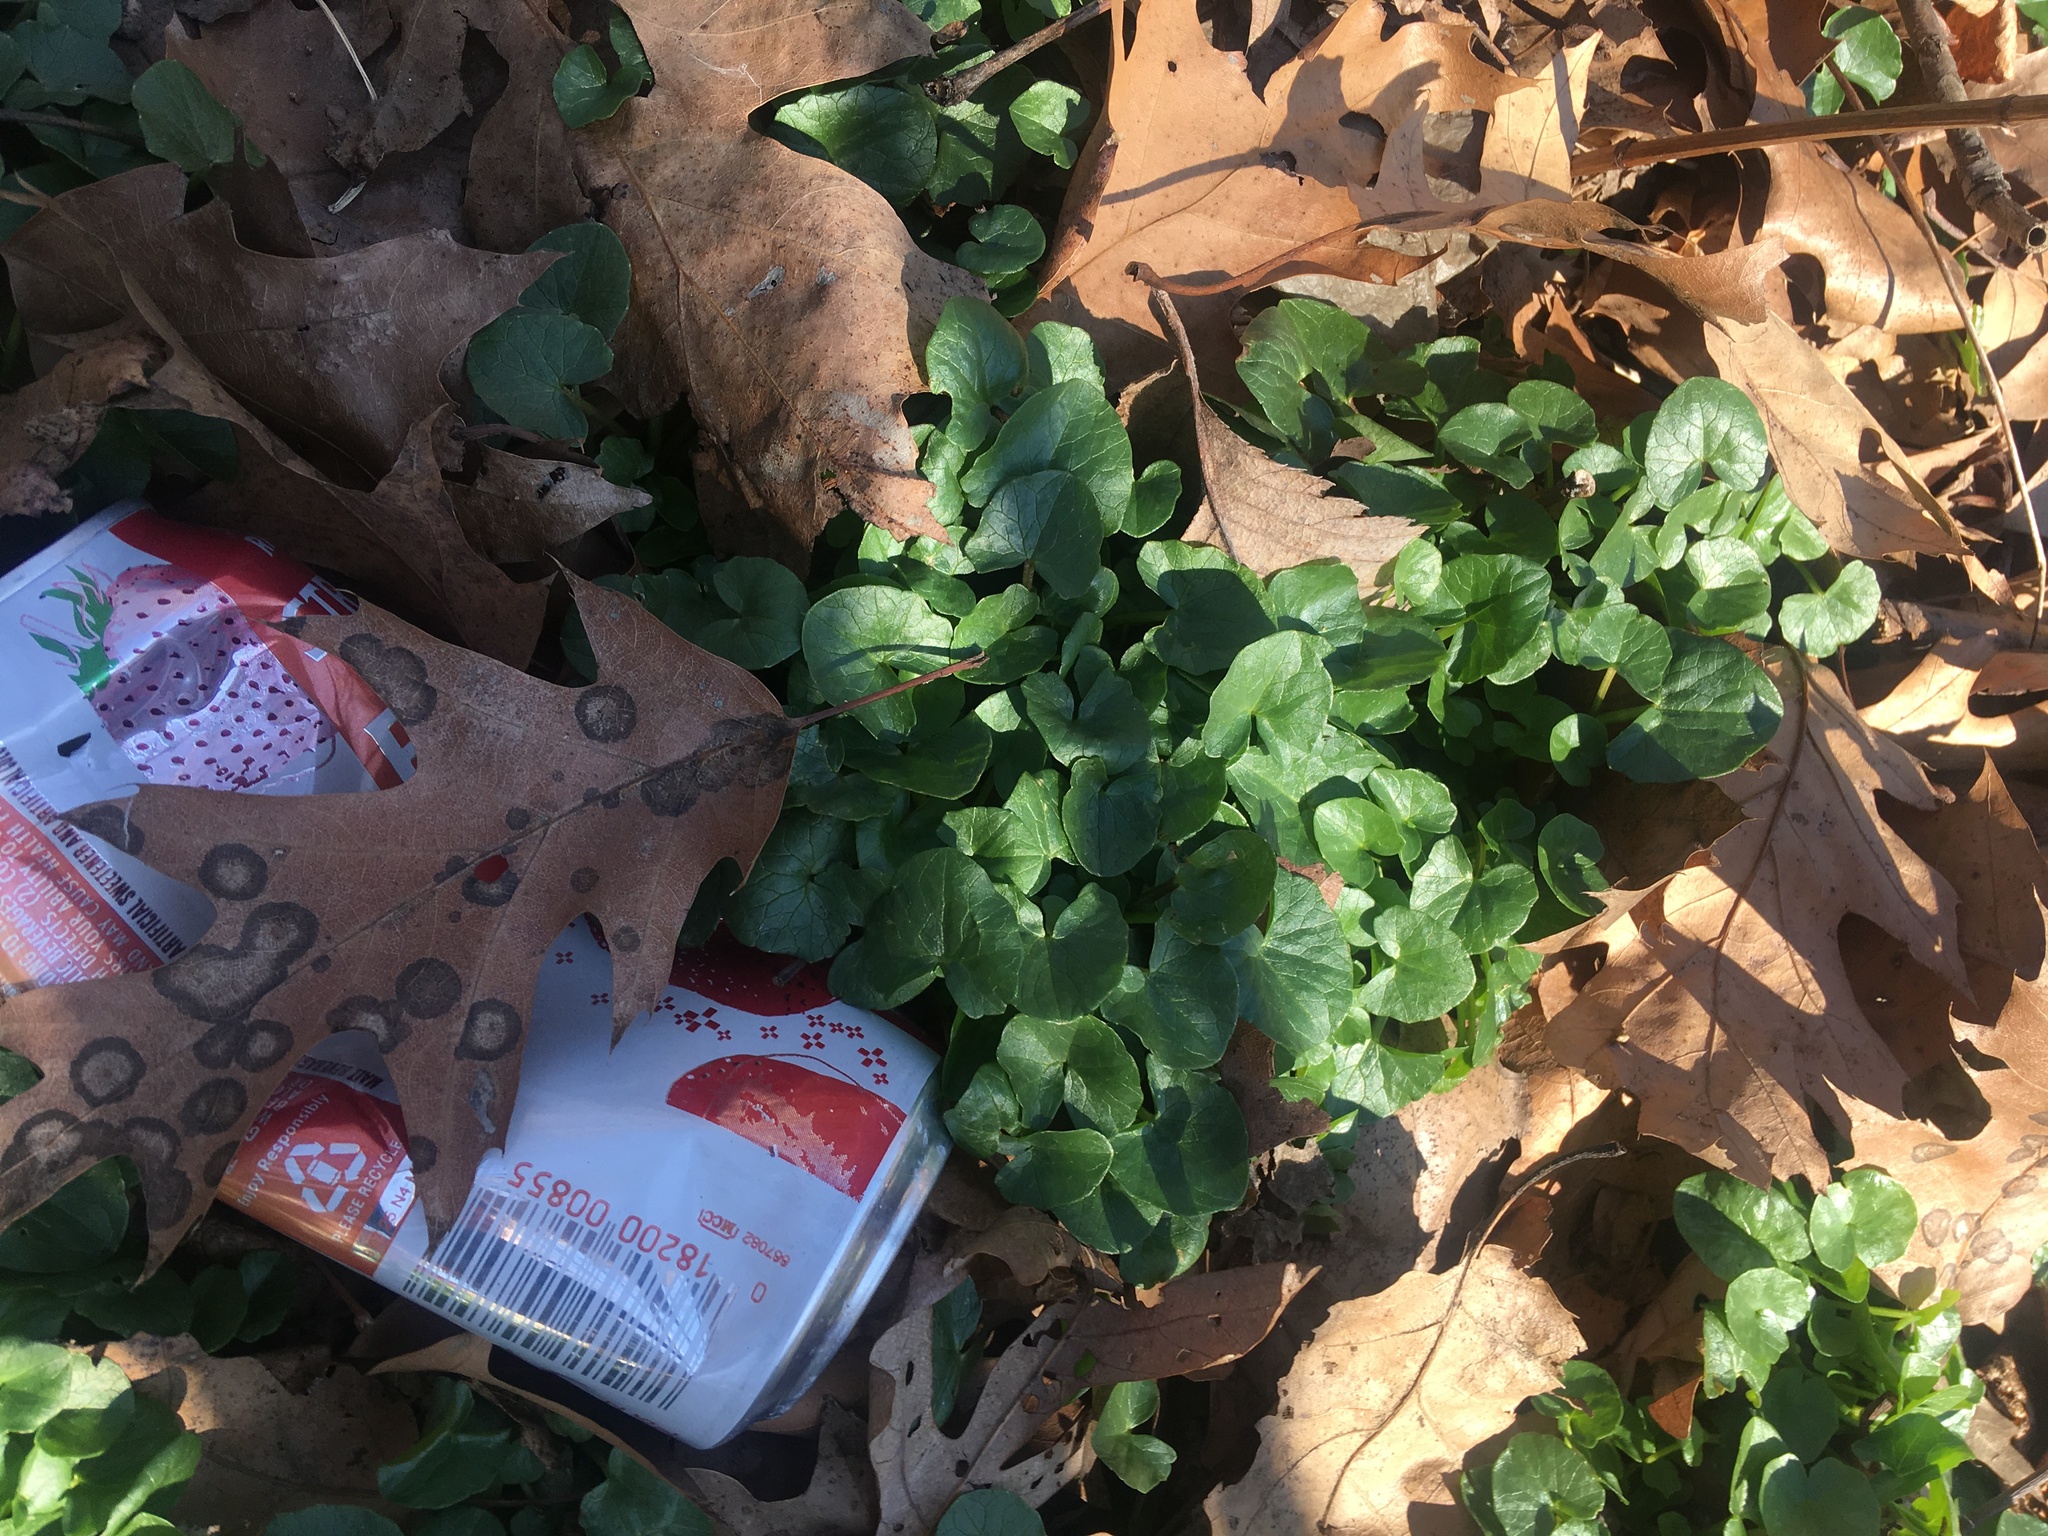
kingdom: Plantae
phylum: Tracheophyta
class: Magnoliopsida
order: Ranunculales
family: Ranunculaceae
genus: Ficaria
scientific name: Ficaria verna
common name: Lesser celandine
